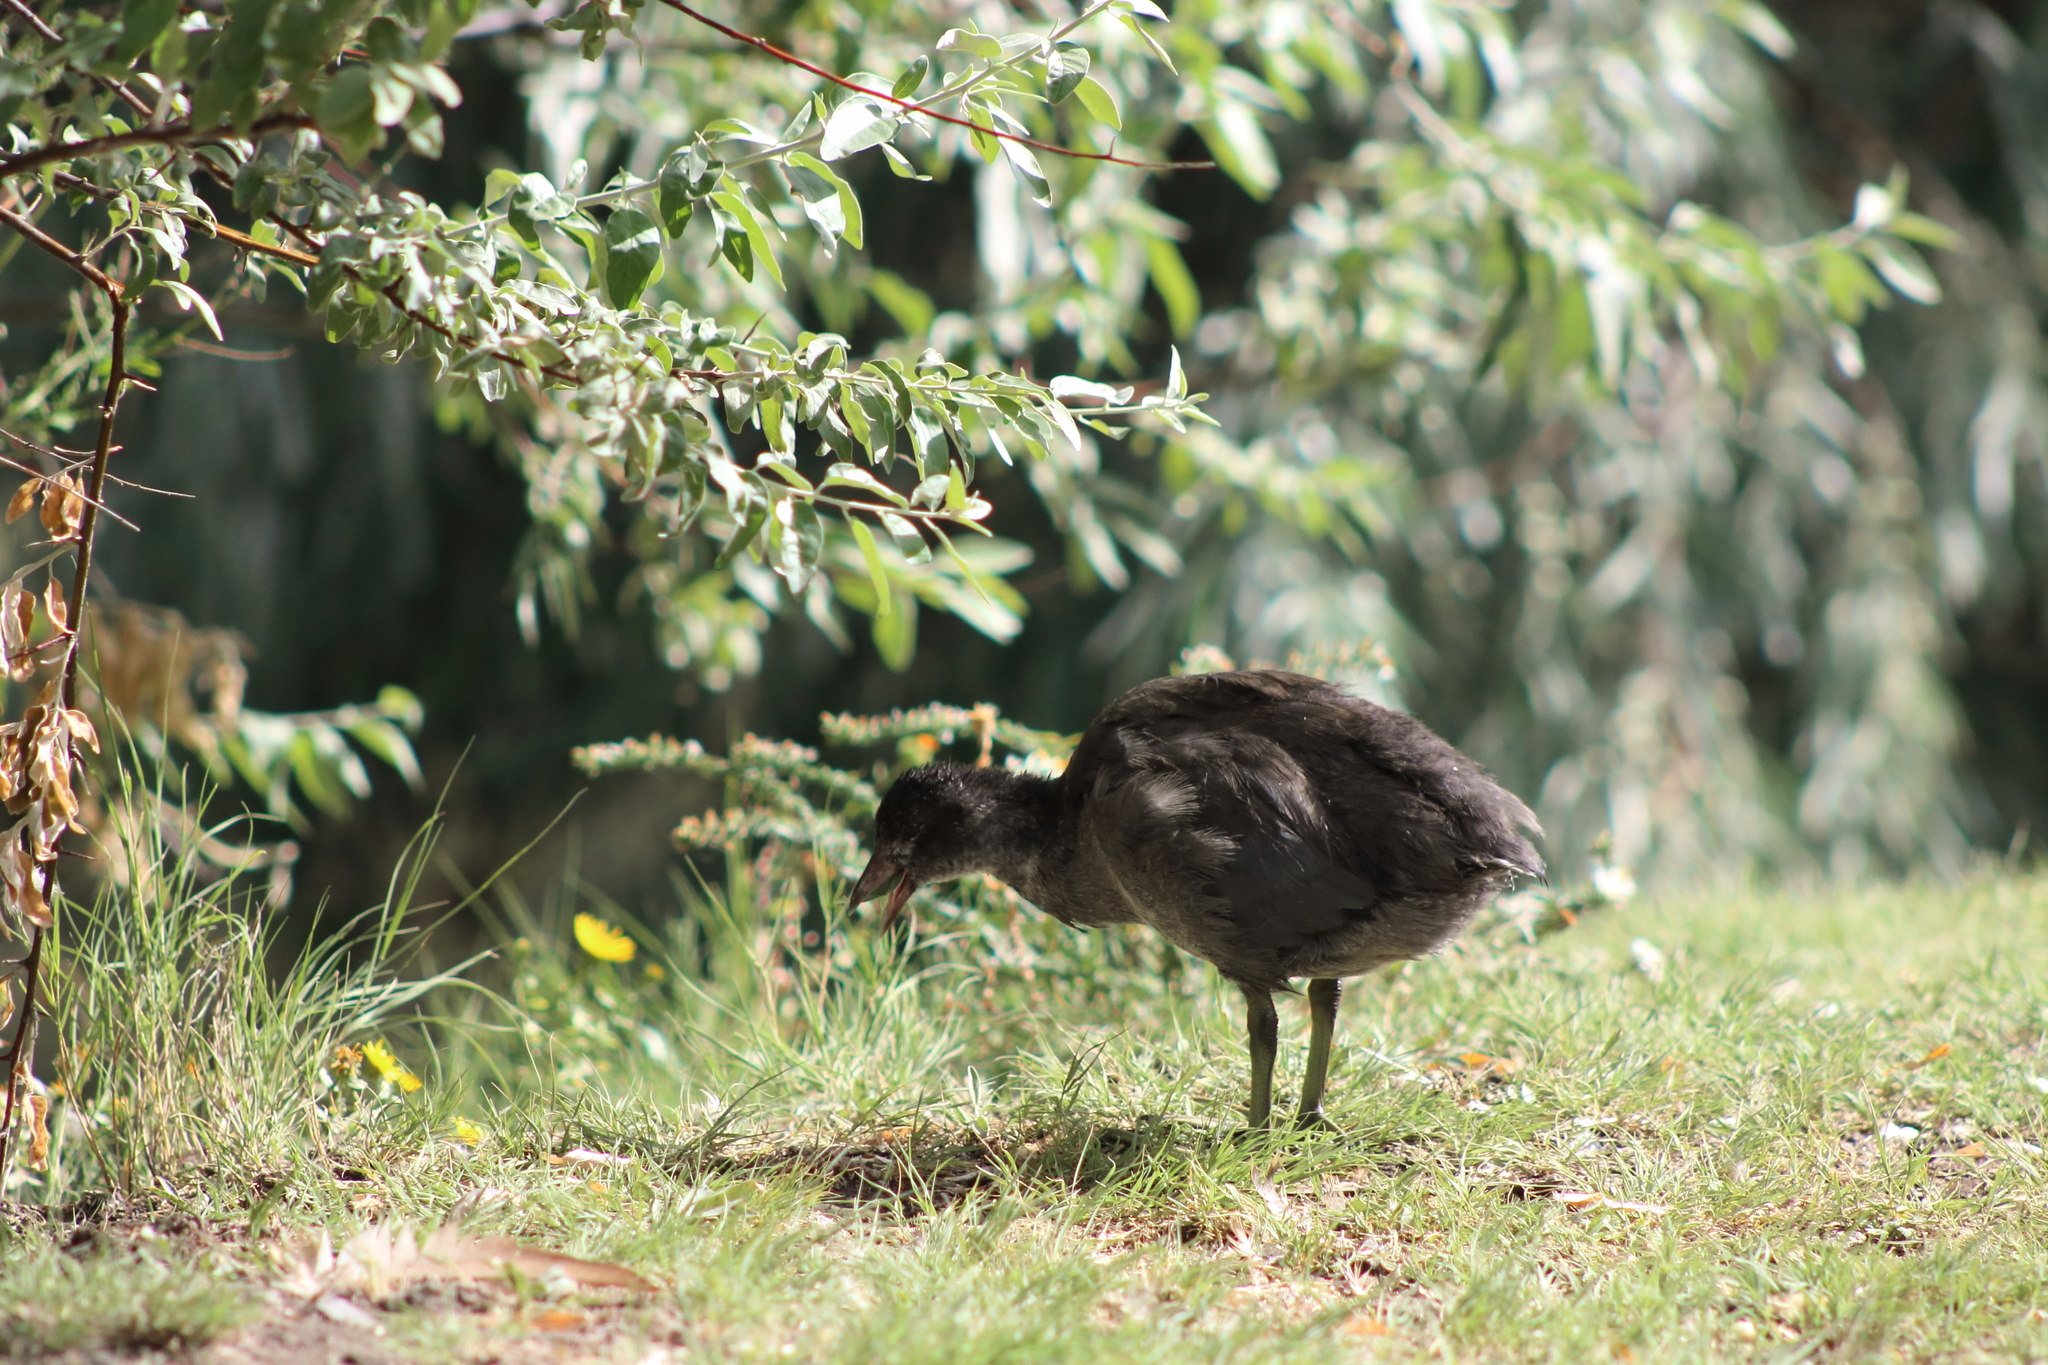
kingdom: Animalia
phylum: Chordata
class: Aves
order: Gruiformes
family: Rallidae
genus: Fulica
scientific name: Fulica americana
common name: American coot
